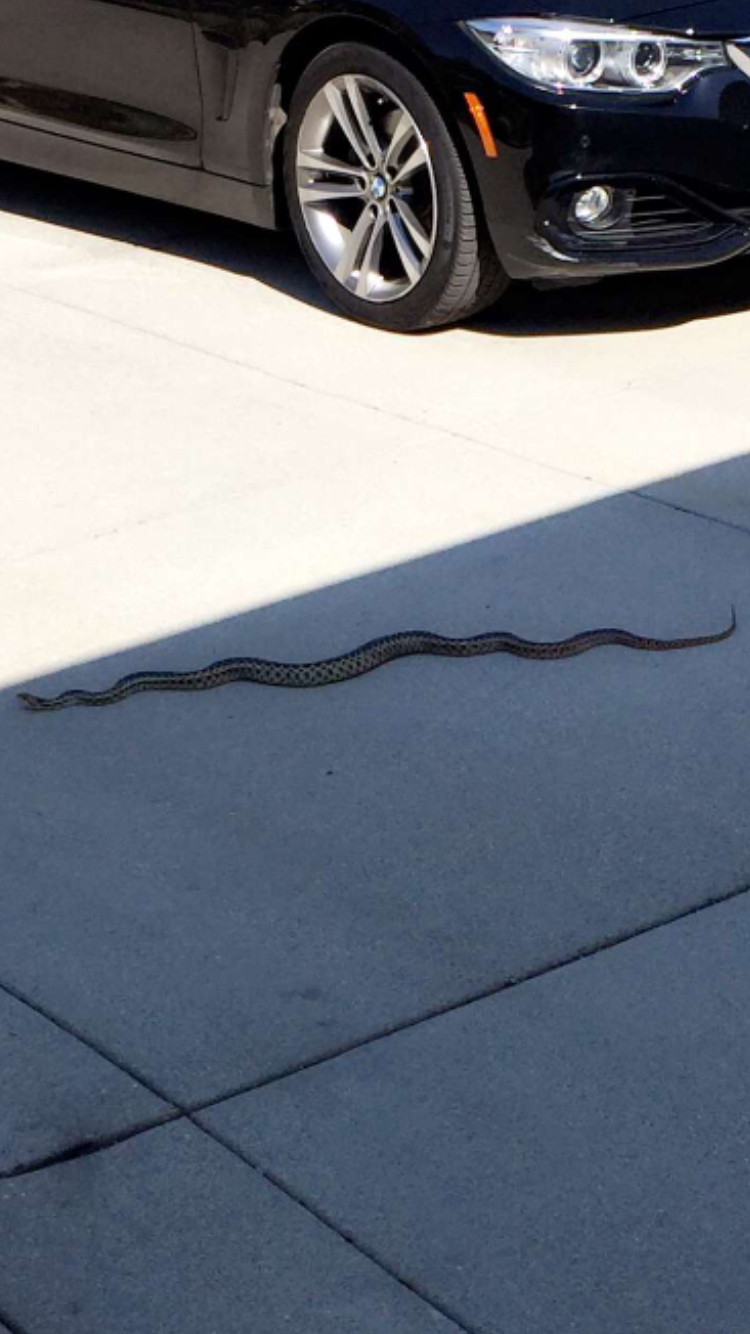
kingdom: Animalia
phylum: Chordata
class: Squamata
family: Colubridae
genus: Pituophis
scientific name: Pituophis catenifer
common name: Gopher snake
